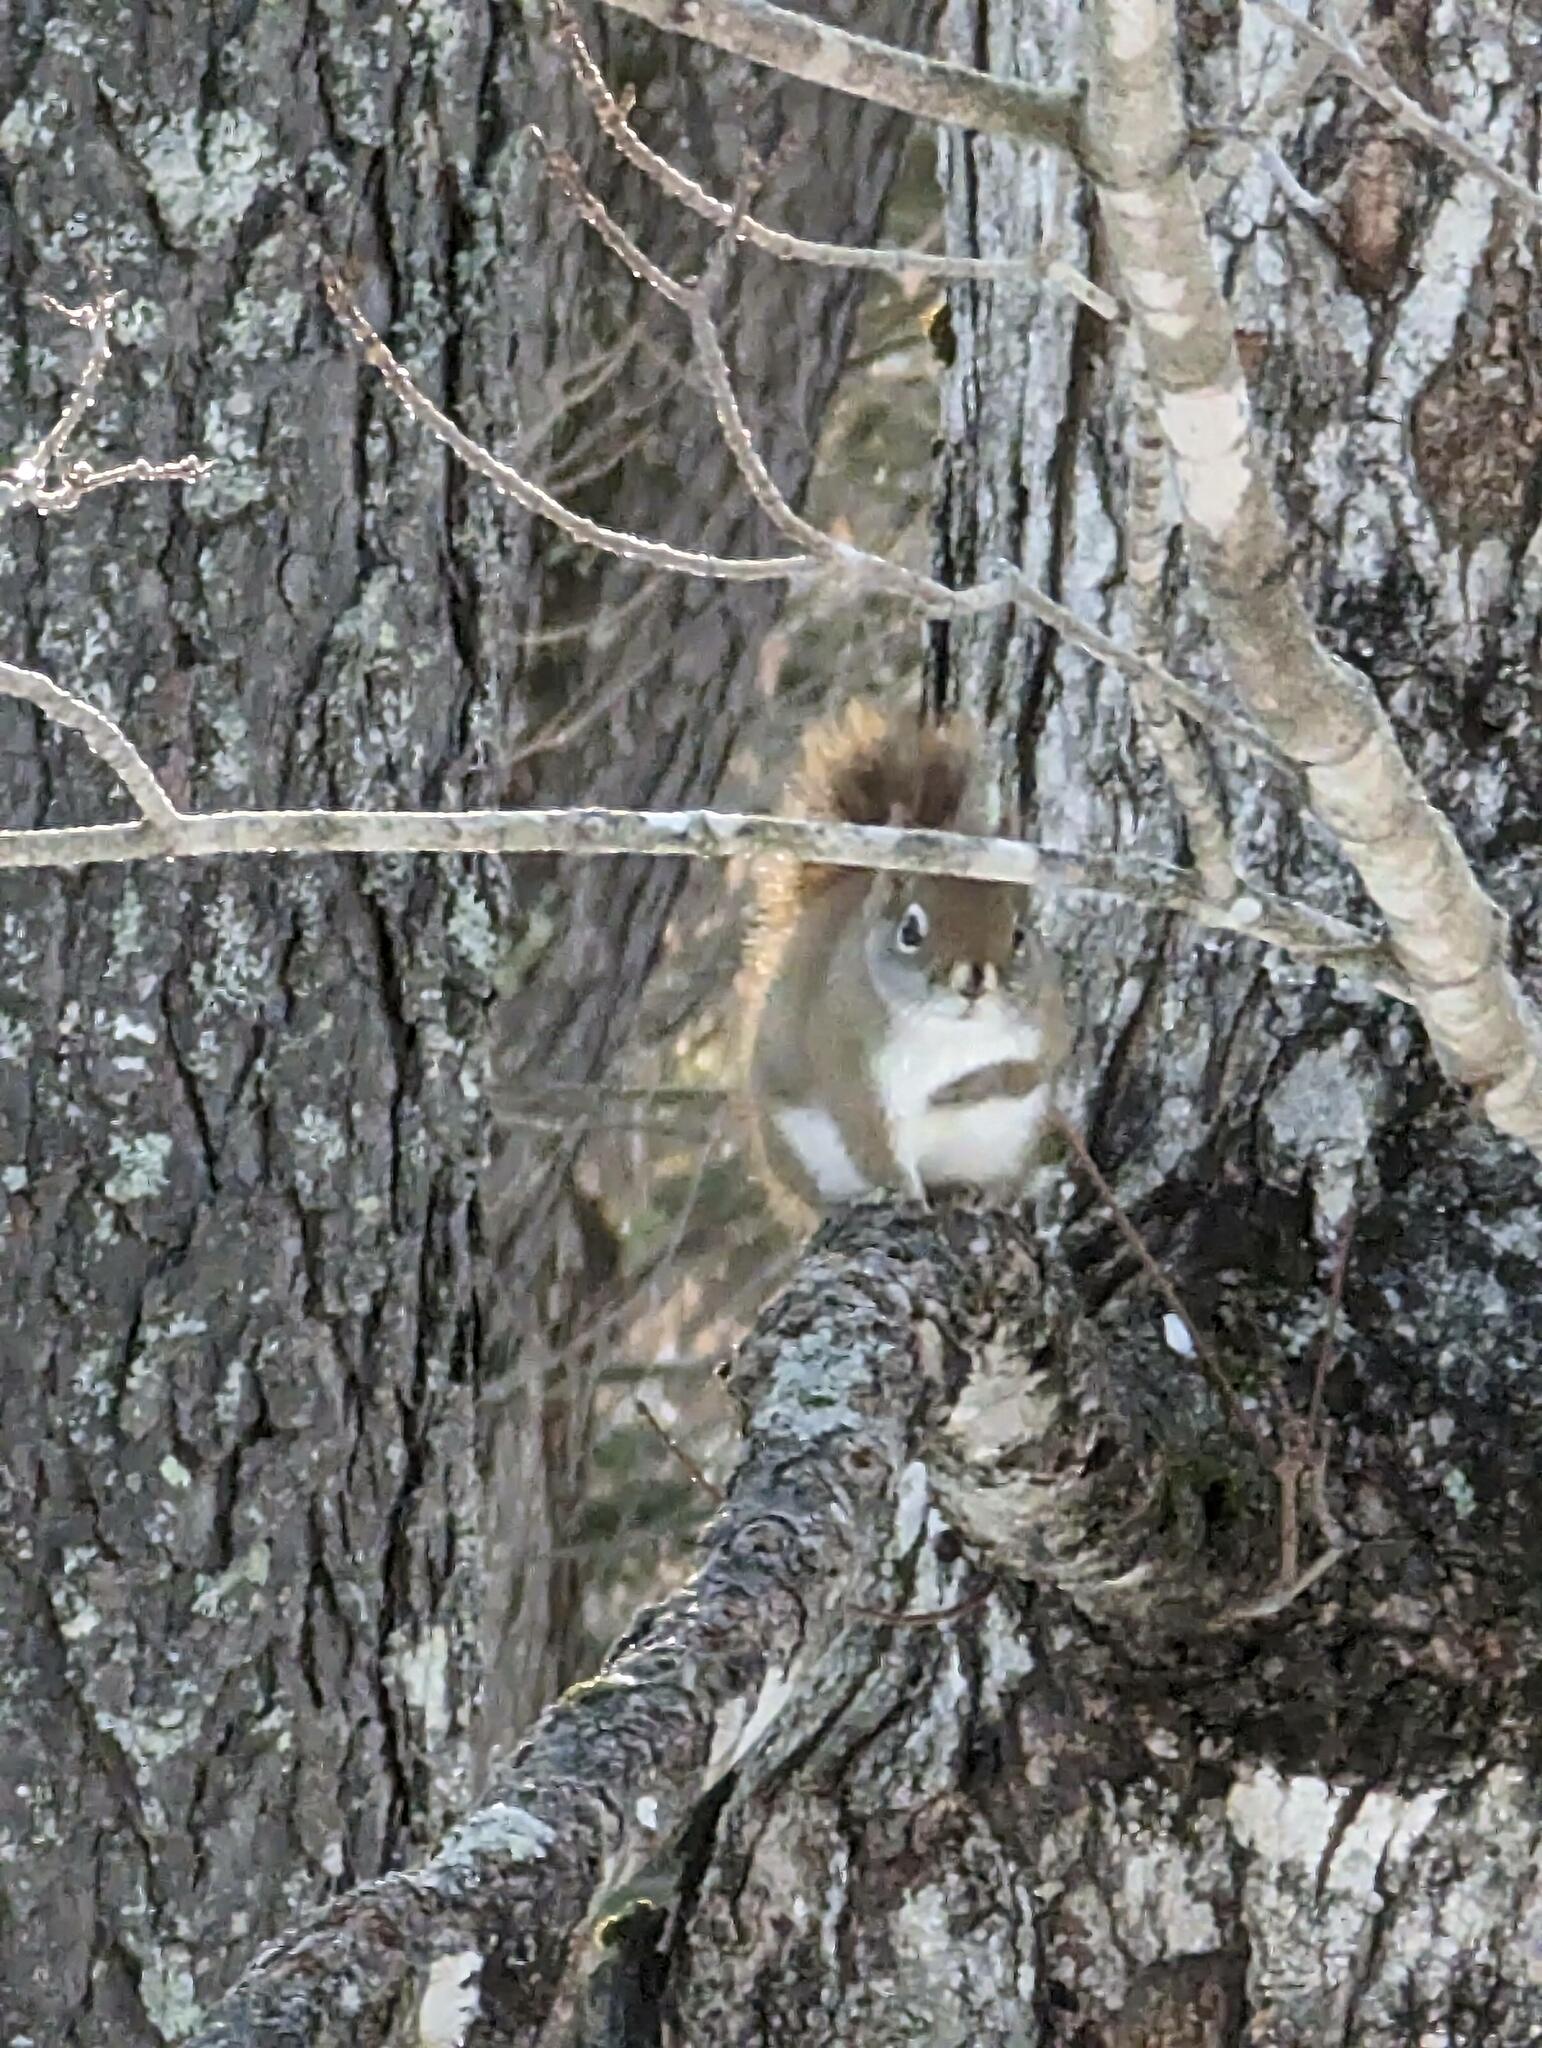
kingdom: Animalia
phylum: Chordata
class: Mammalia
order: Rodentia
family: Sciuridae
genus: Tamiasciurus
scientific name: Tamiasciurus hudsonicus
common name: Red squirrel
